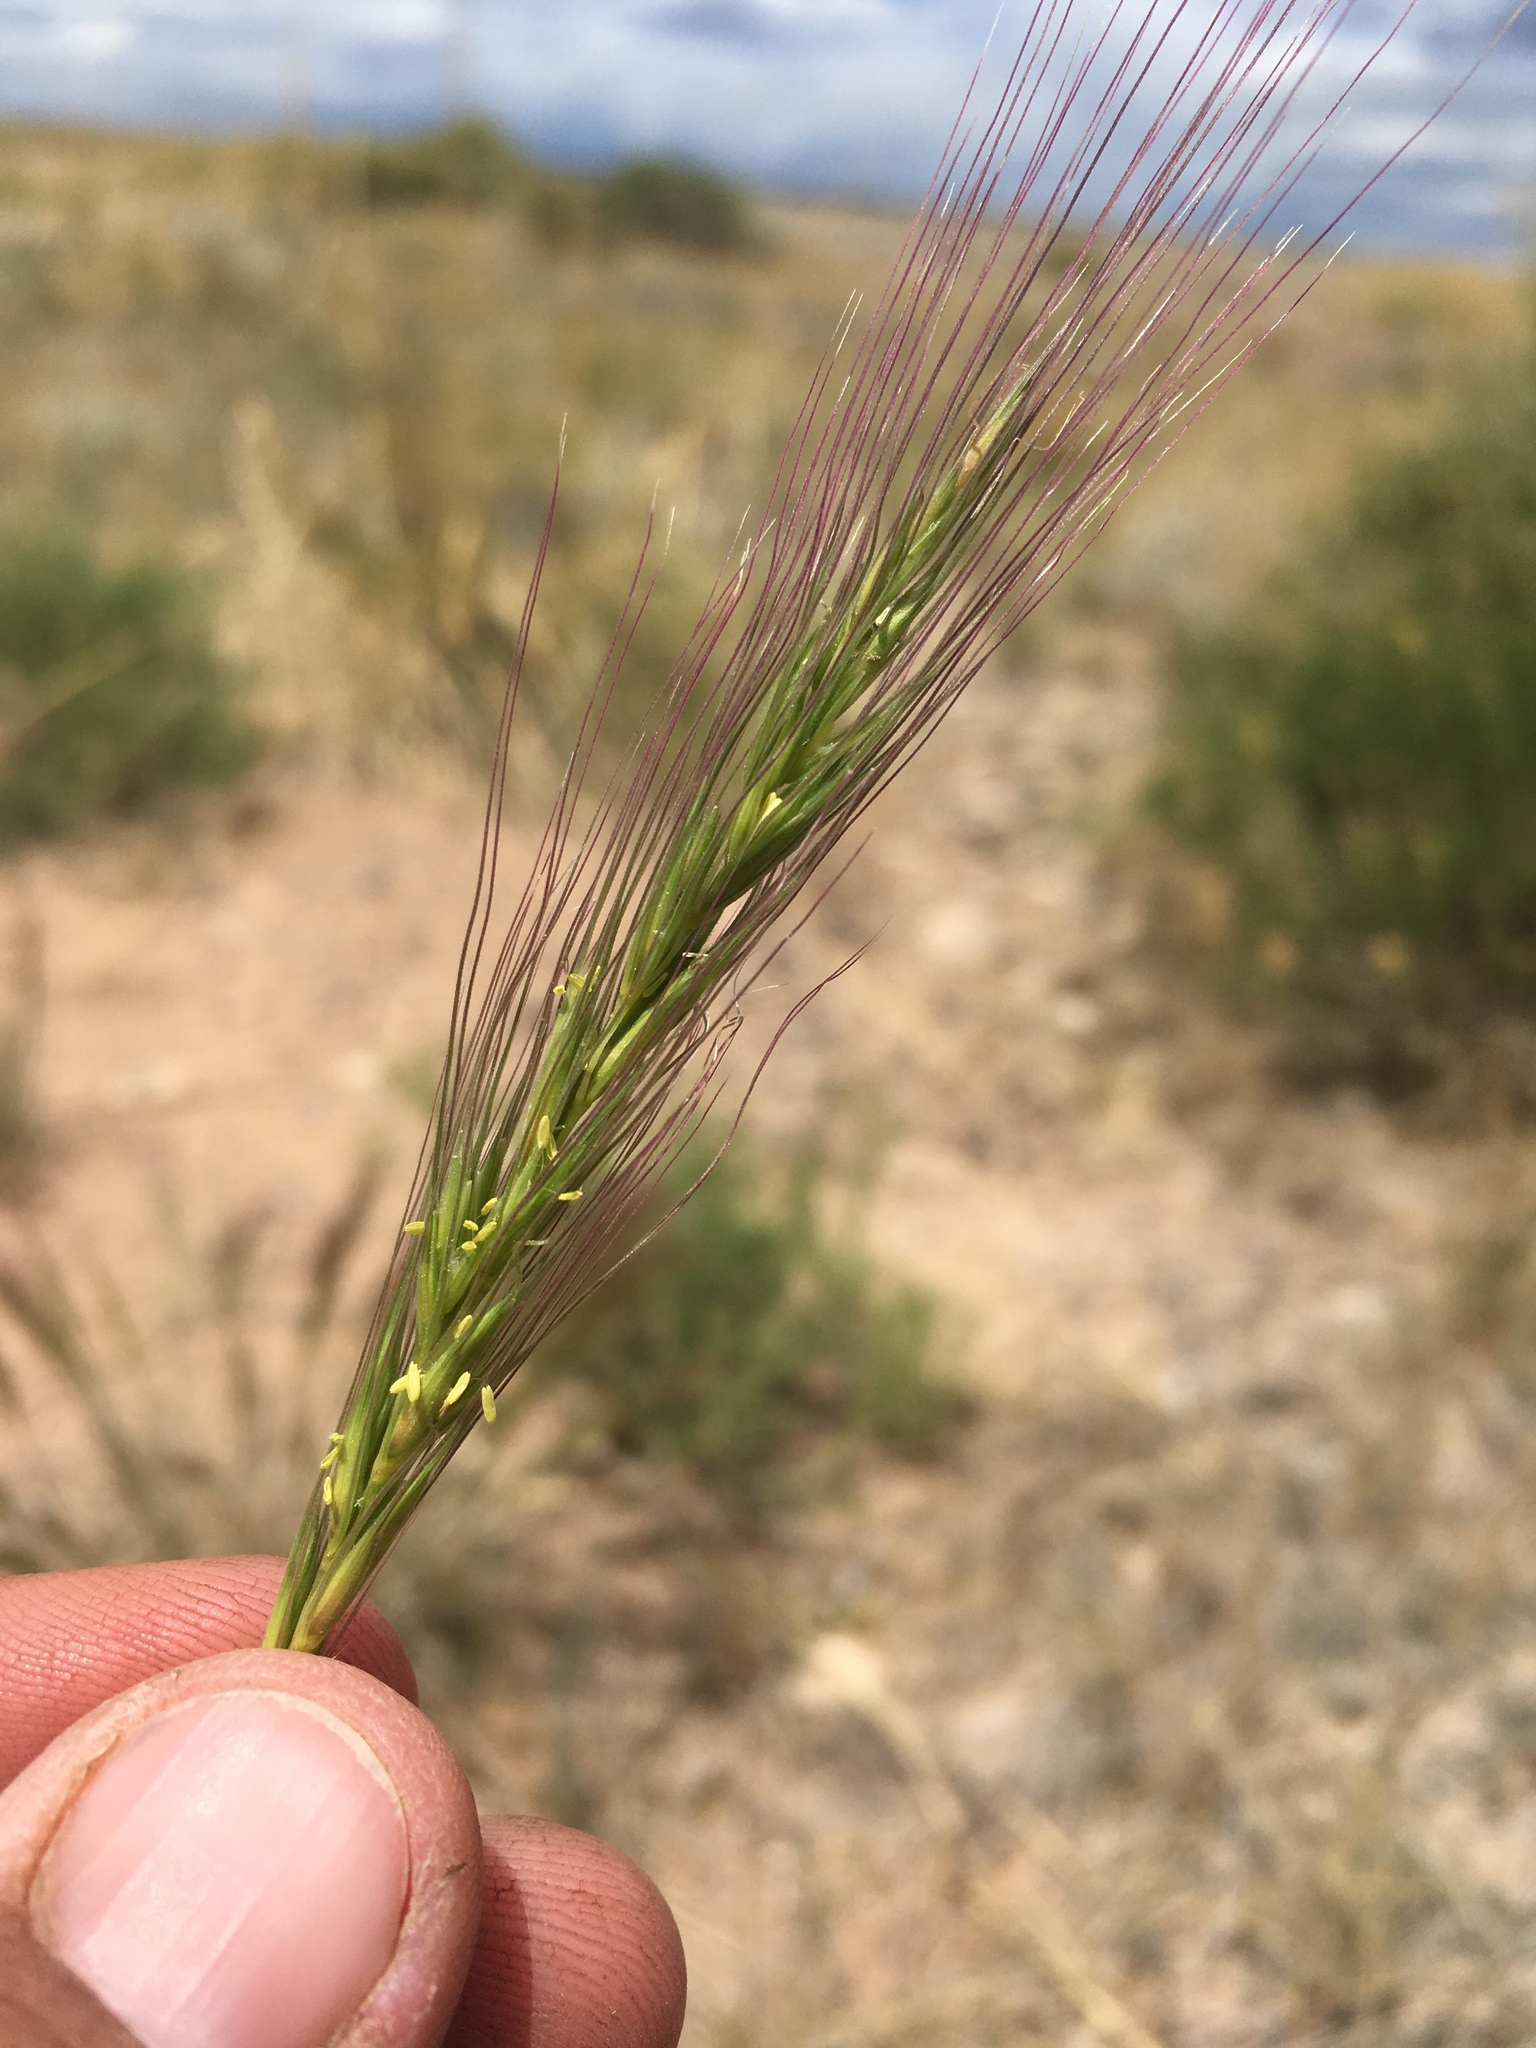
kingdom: Plantae
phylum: Tracheophyta
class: Liliopsida
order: Poales
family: Poaceae
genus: Elymus
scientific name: Elymus longifolius
